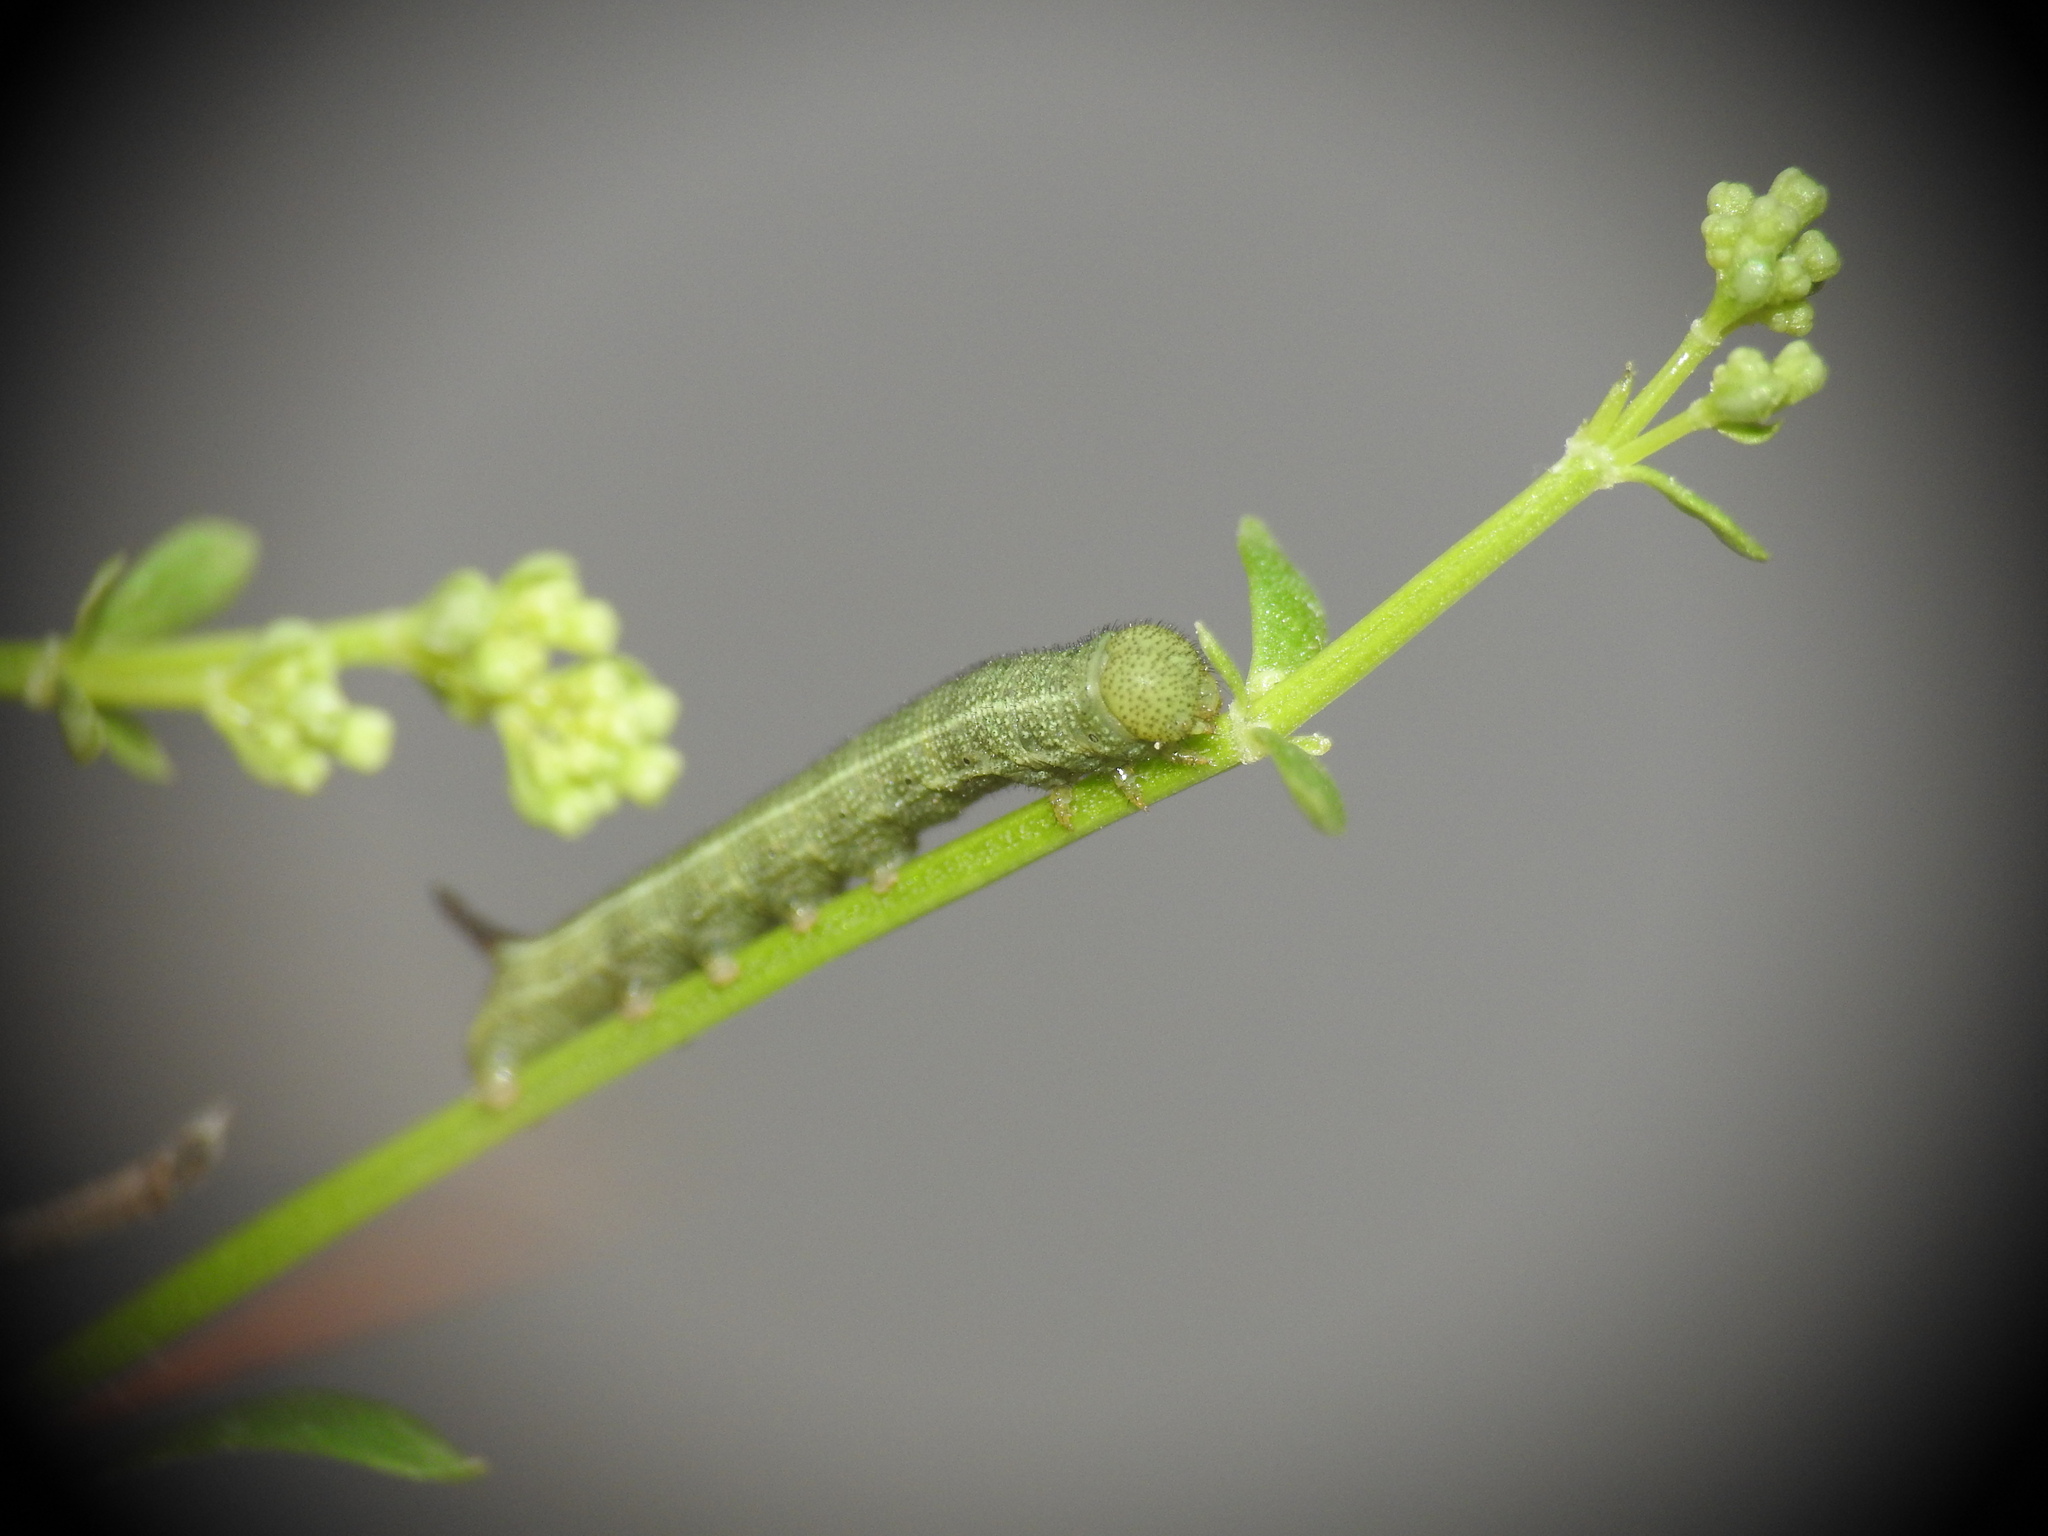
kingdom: Animalia
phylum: Arthropoda
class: Insecta
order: Lepidoptera
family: Sphingidae
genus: Macroglossum
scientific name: Macroglossum stellatarum
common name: Humming-bird hawk-moth
